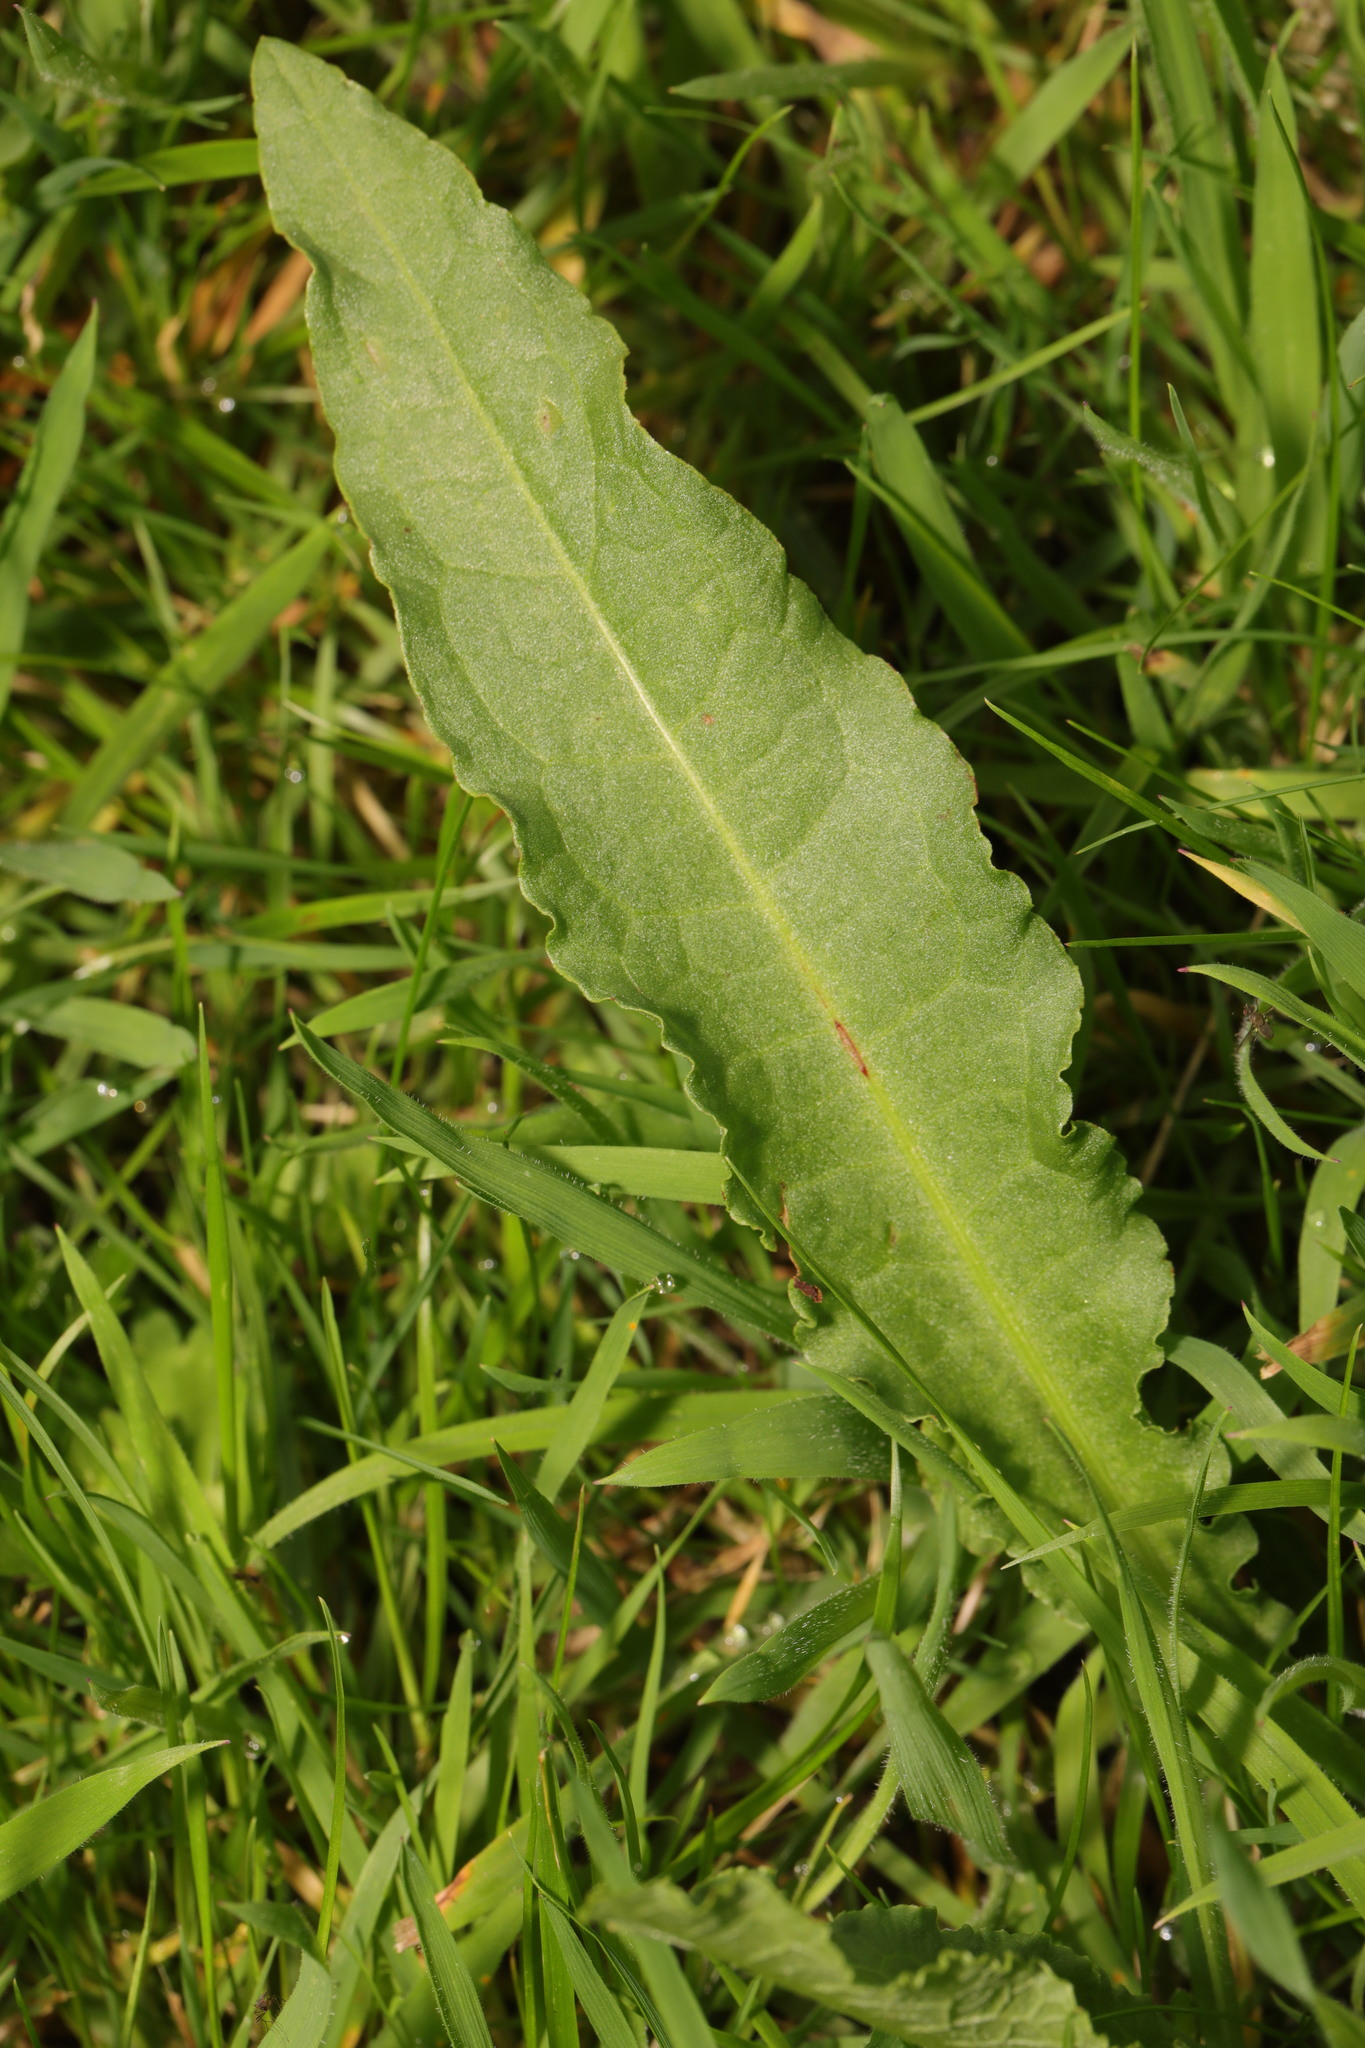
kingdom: Plantae
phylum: Tracheophyta
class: Magnoliopsida
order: Caryophyllales
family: Polygonaceae
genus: Rumex
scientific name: Rumex crispus
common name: Curled dock
